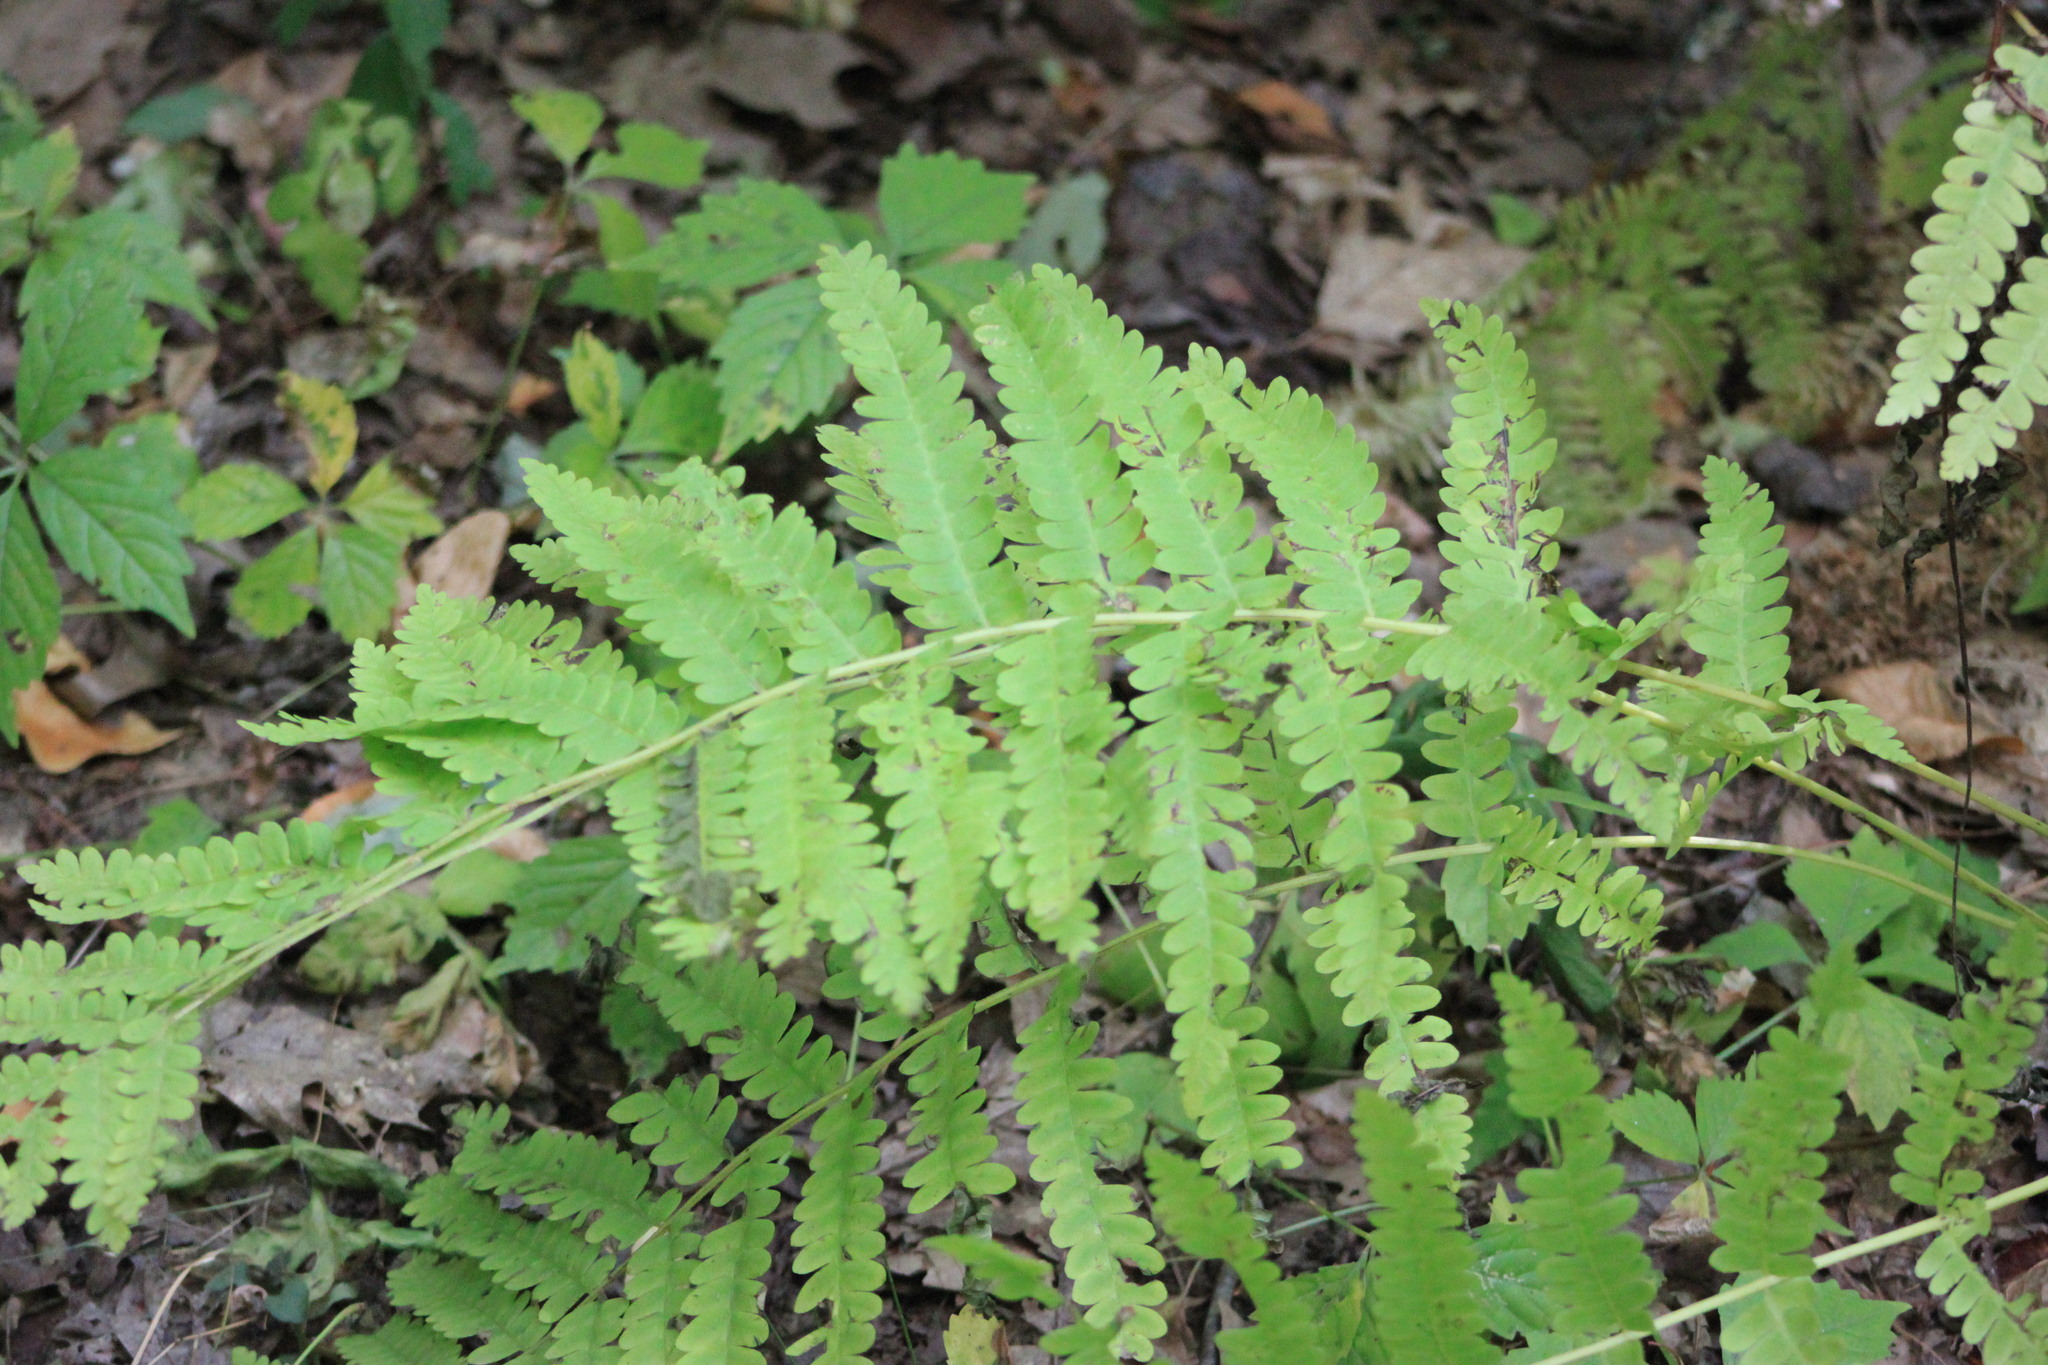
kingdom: Plantae
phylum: Tracheophyta
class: Polypodiopsida
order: Osmundales
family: Osmundaceae
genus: Claytosmunda
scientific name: Claytosmunda claytoniana
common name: Clayton's fern
